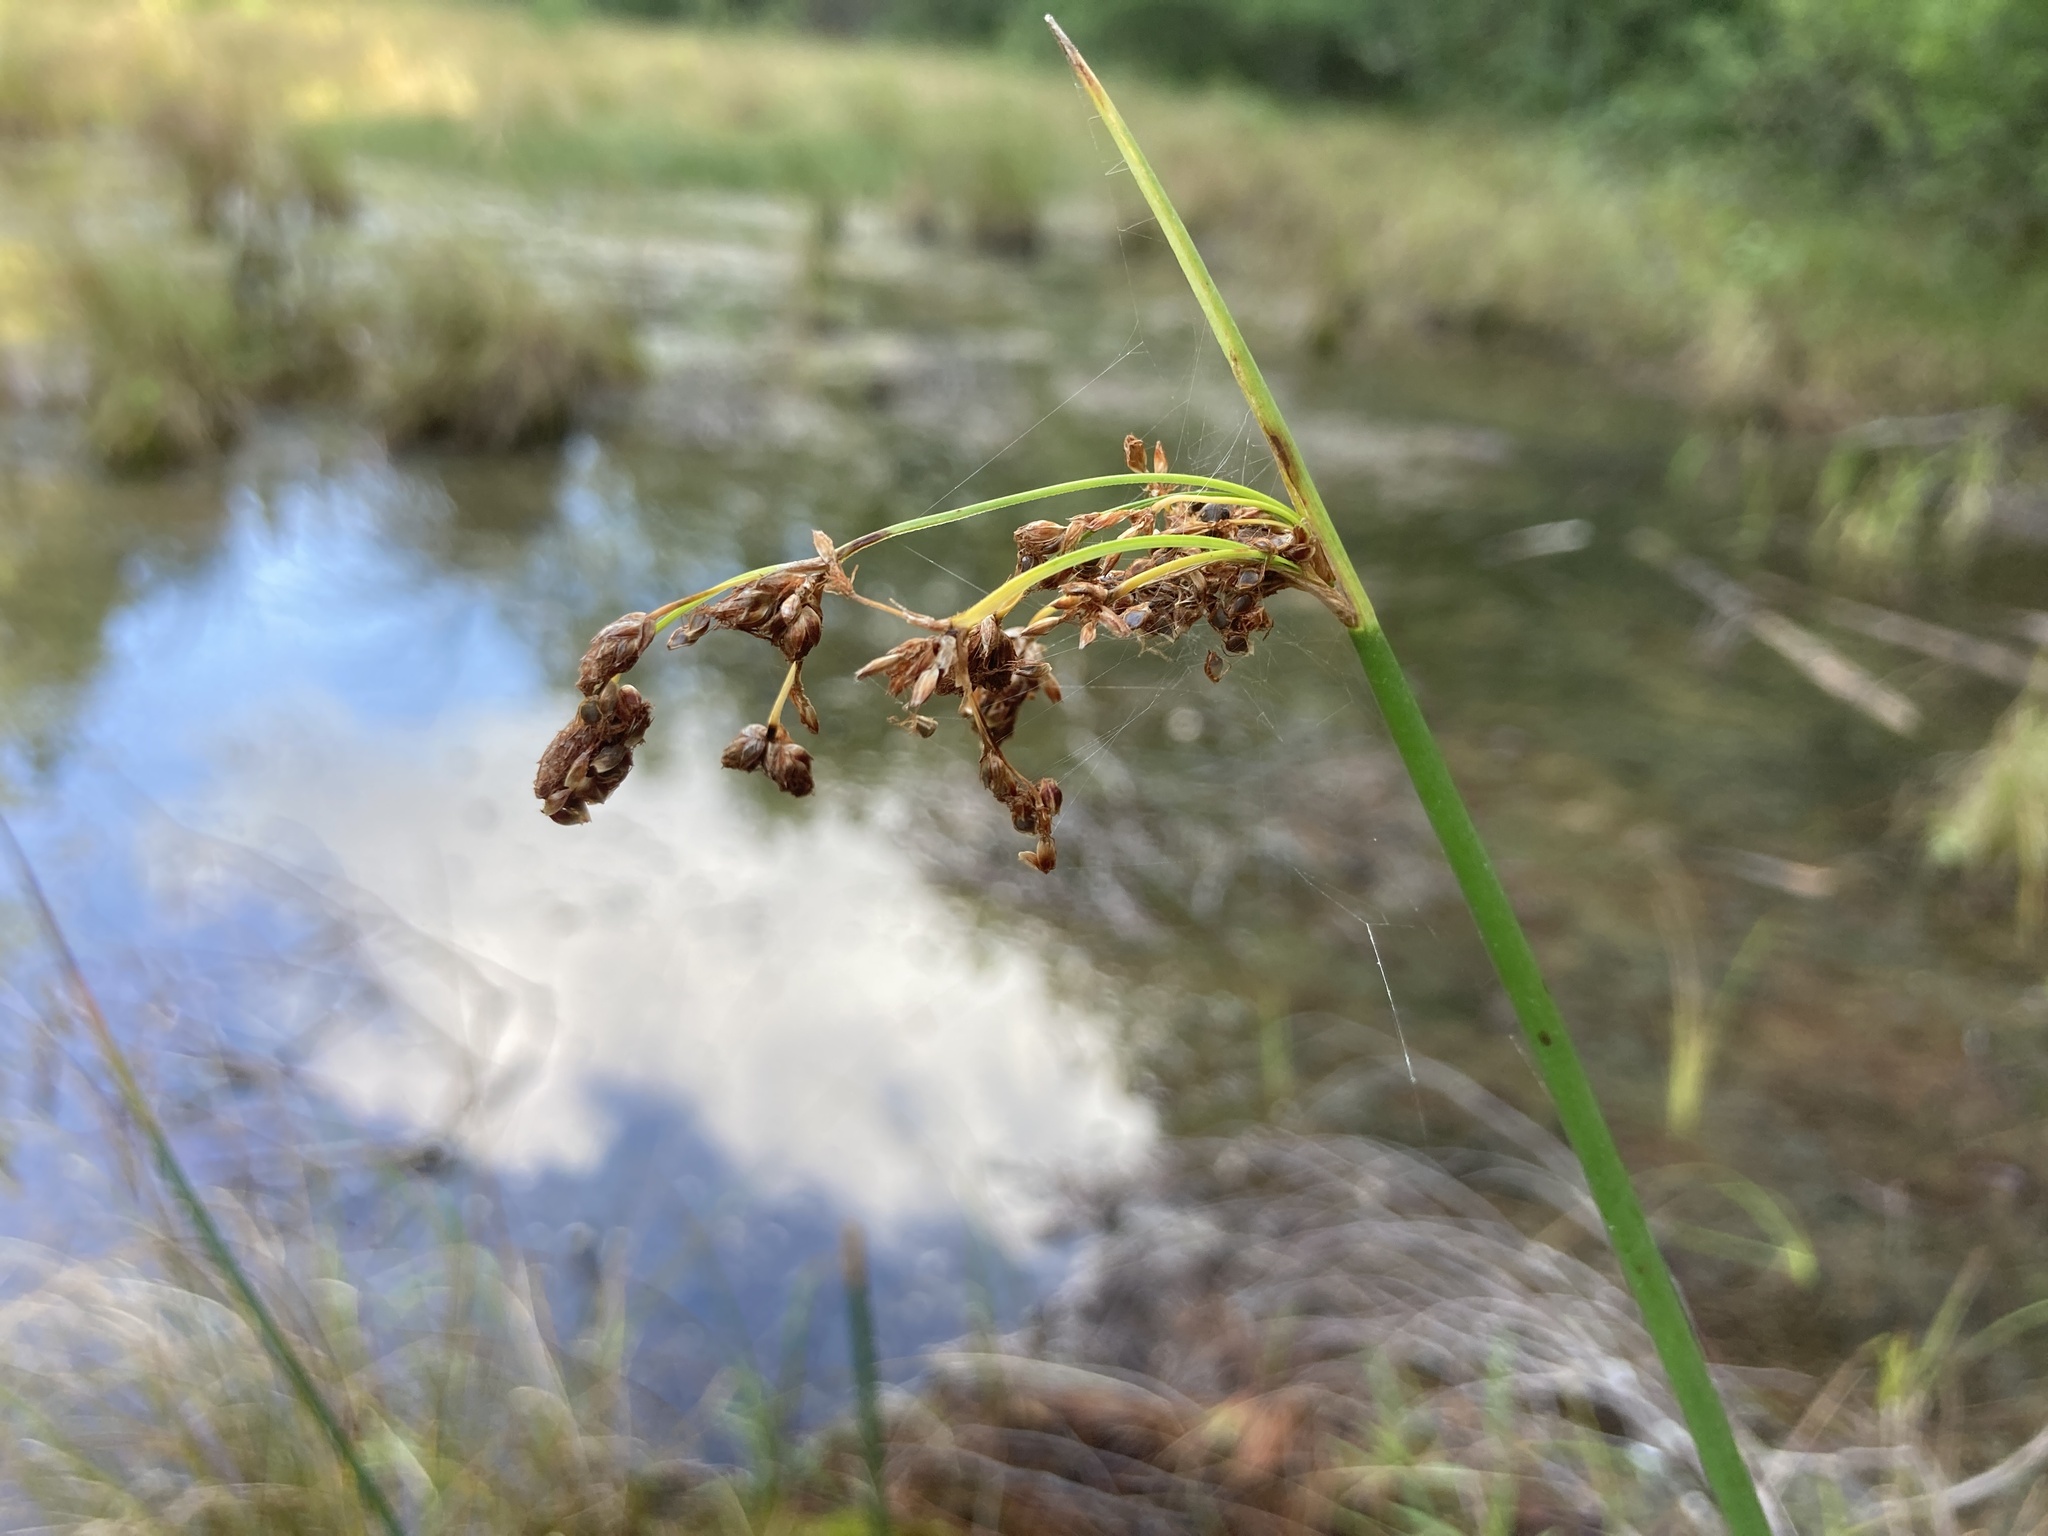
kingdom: Plantae
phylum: Tracheophyta
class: Liliopsida
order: Poales
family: Cyperaceae
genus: Schoenoplectus
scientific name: Schoenoplectus tabernaemontani
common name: Grey club-rush
